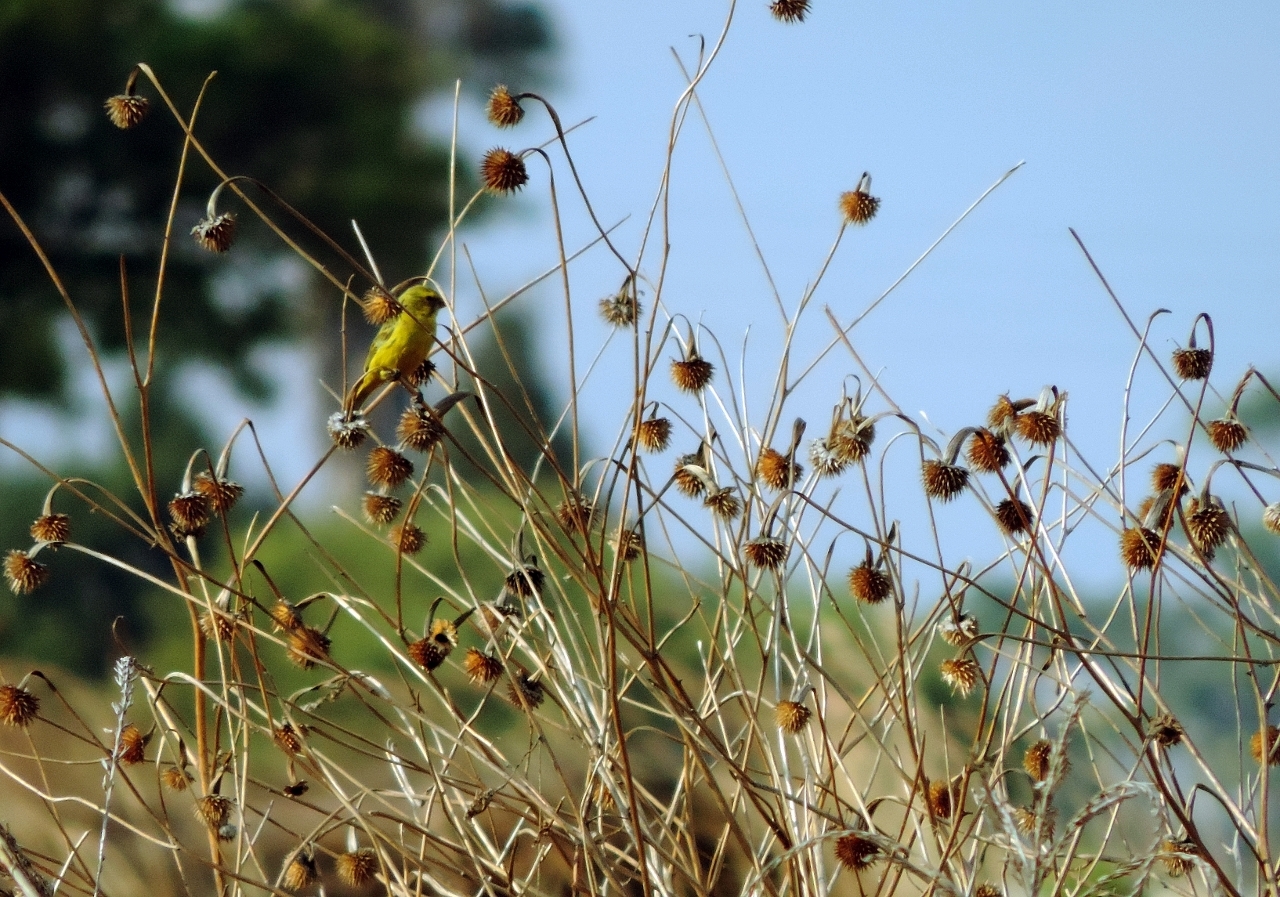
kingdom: Animalia
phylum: Chordata
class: Aves
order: Passeriformes
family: Fringillidae
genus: Crithagra
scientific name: Crithagra sulphurata
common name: Brimstone canary
